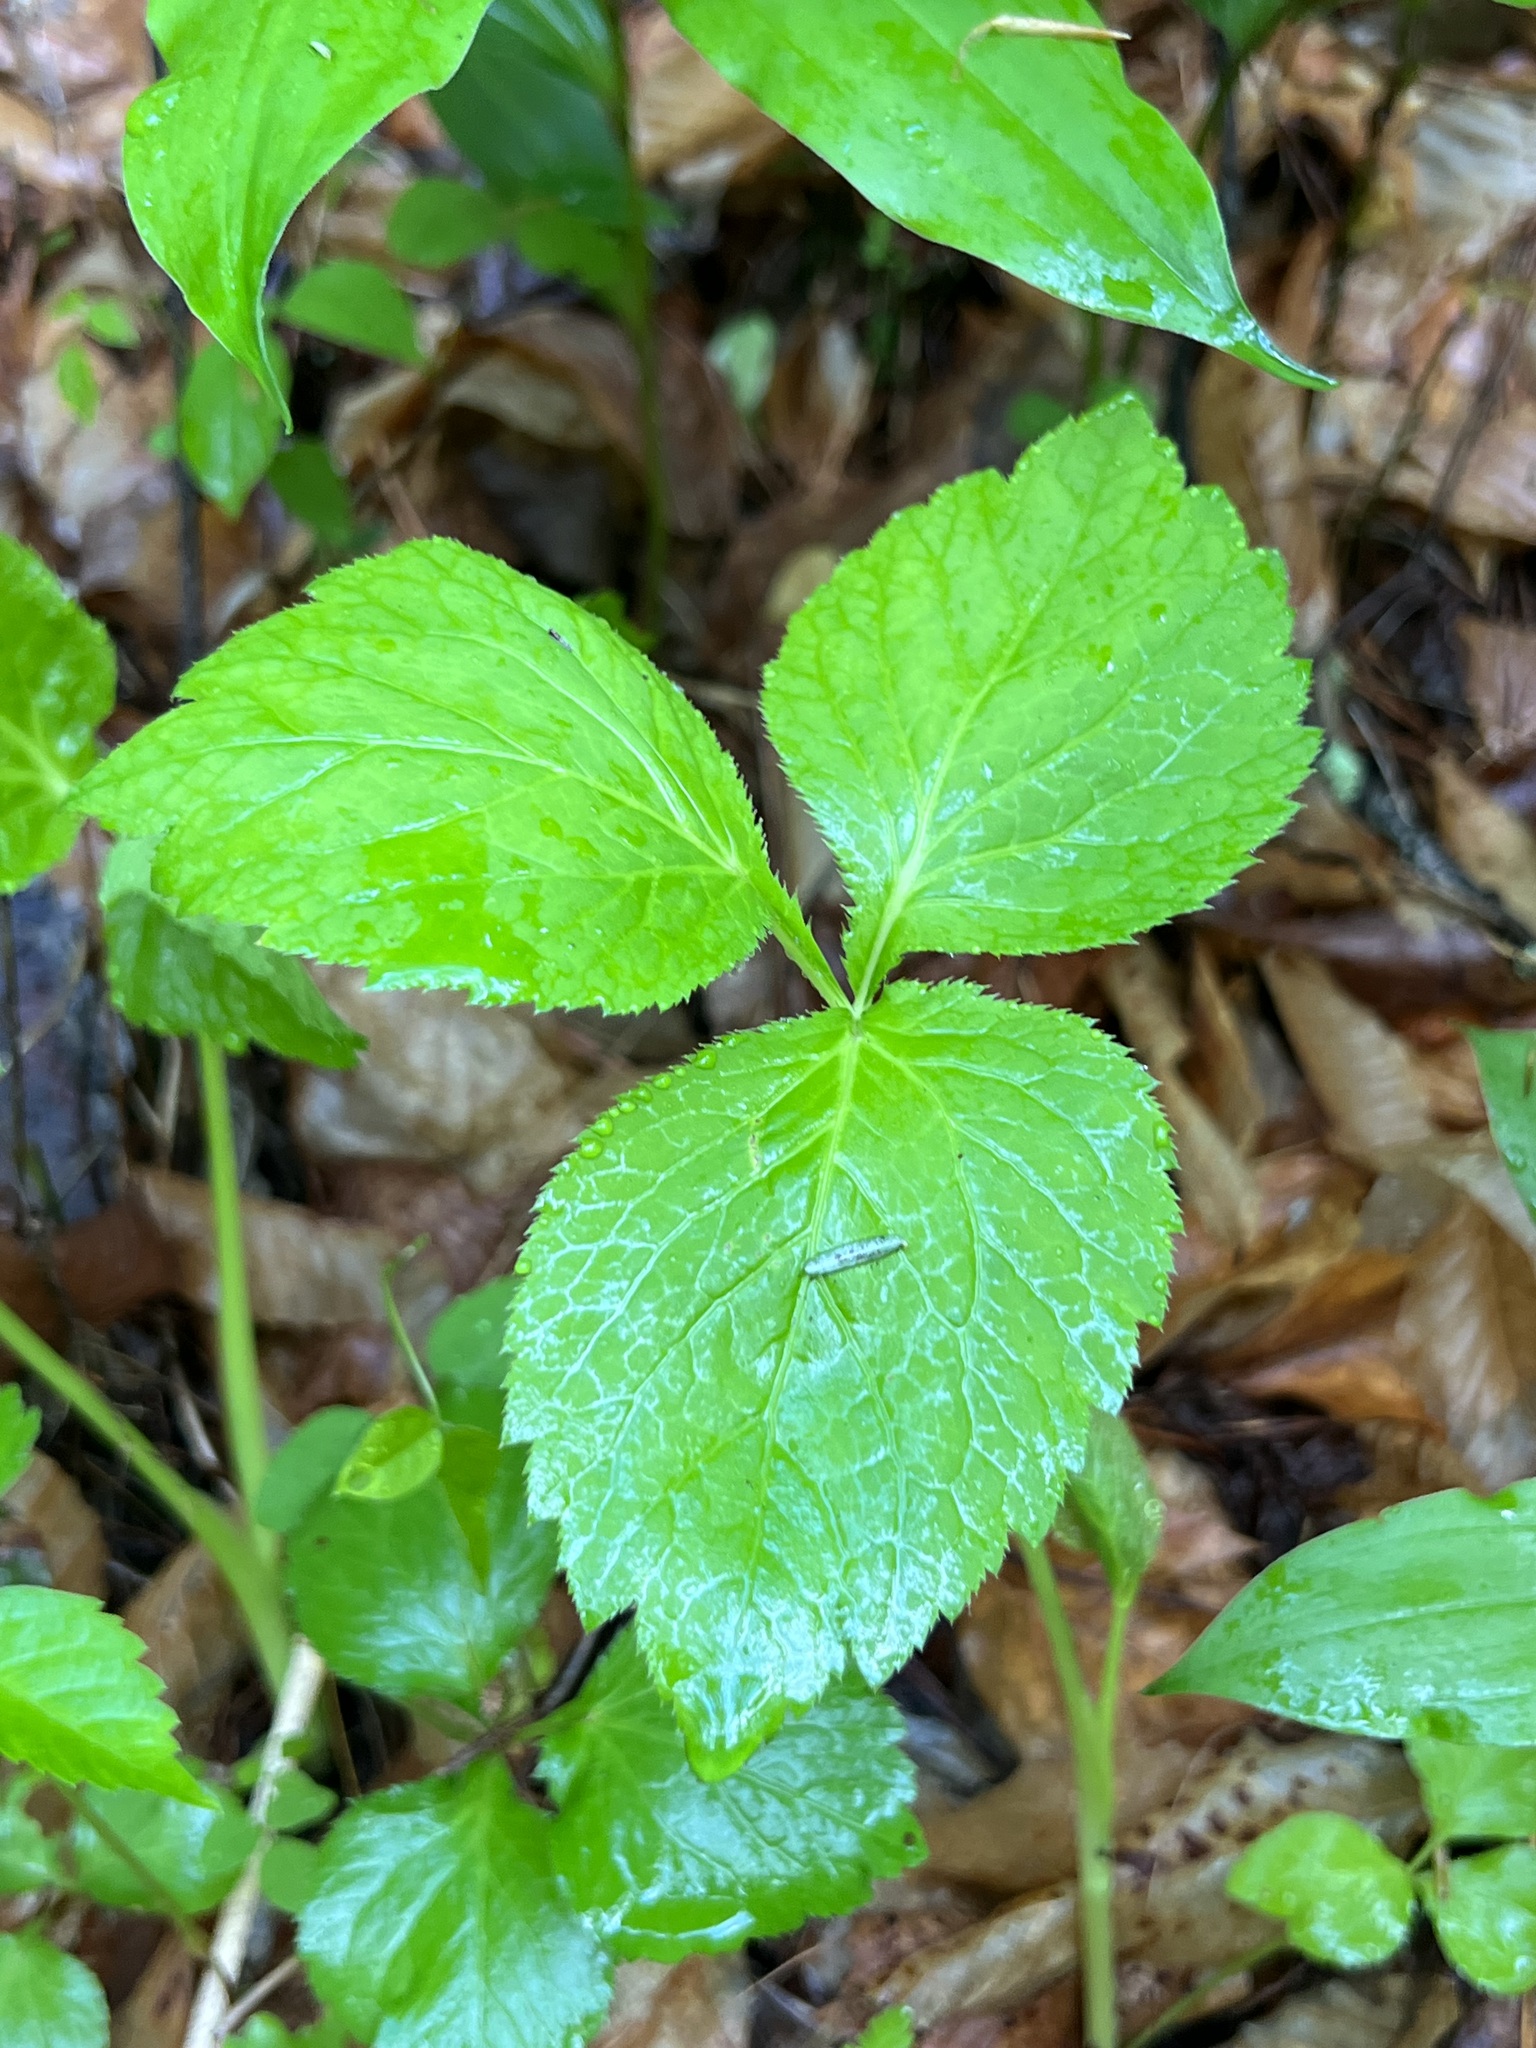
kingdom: Plantae
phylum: Tracheophyta
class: Magnoliopsida
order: Apiales
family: Apiaceae
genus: Cryptotaenia
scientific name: Cryptotaenia canadensis
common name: Honewort
